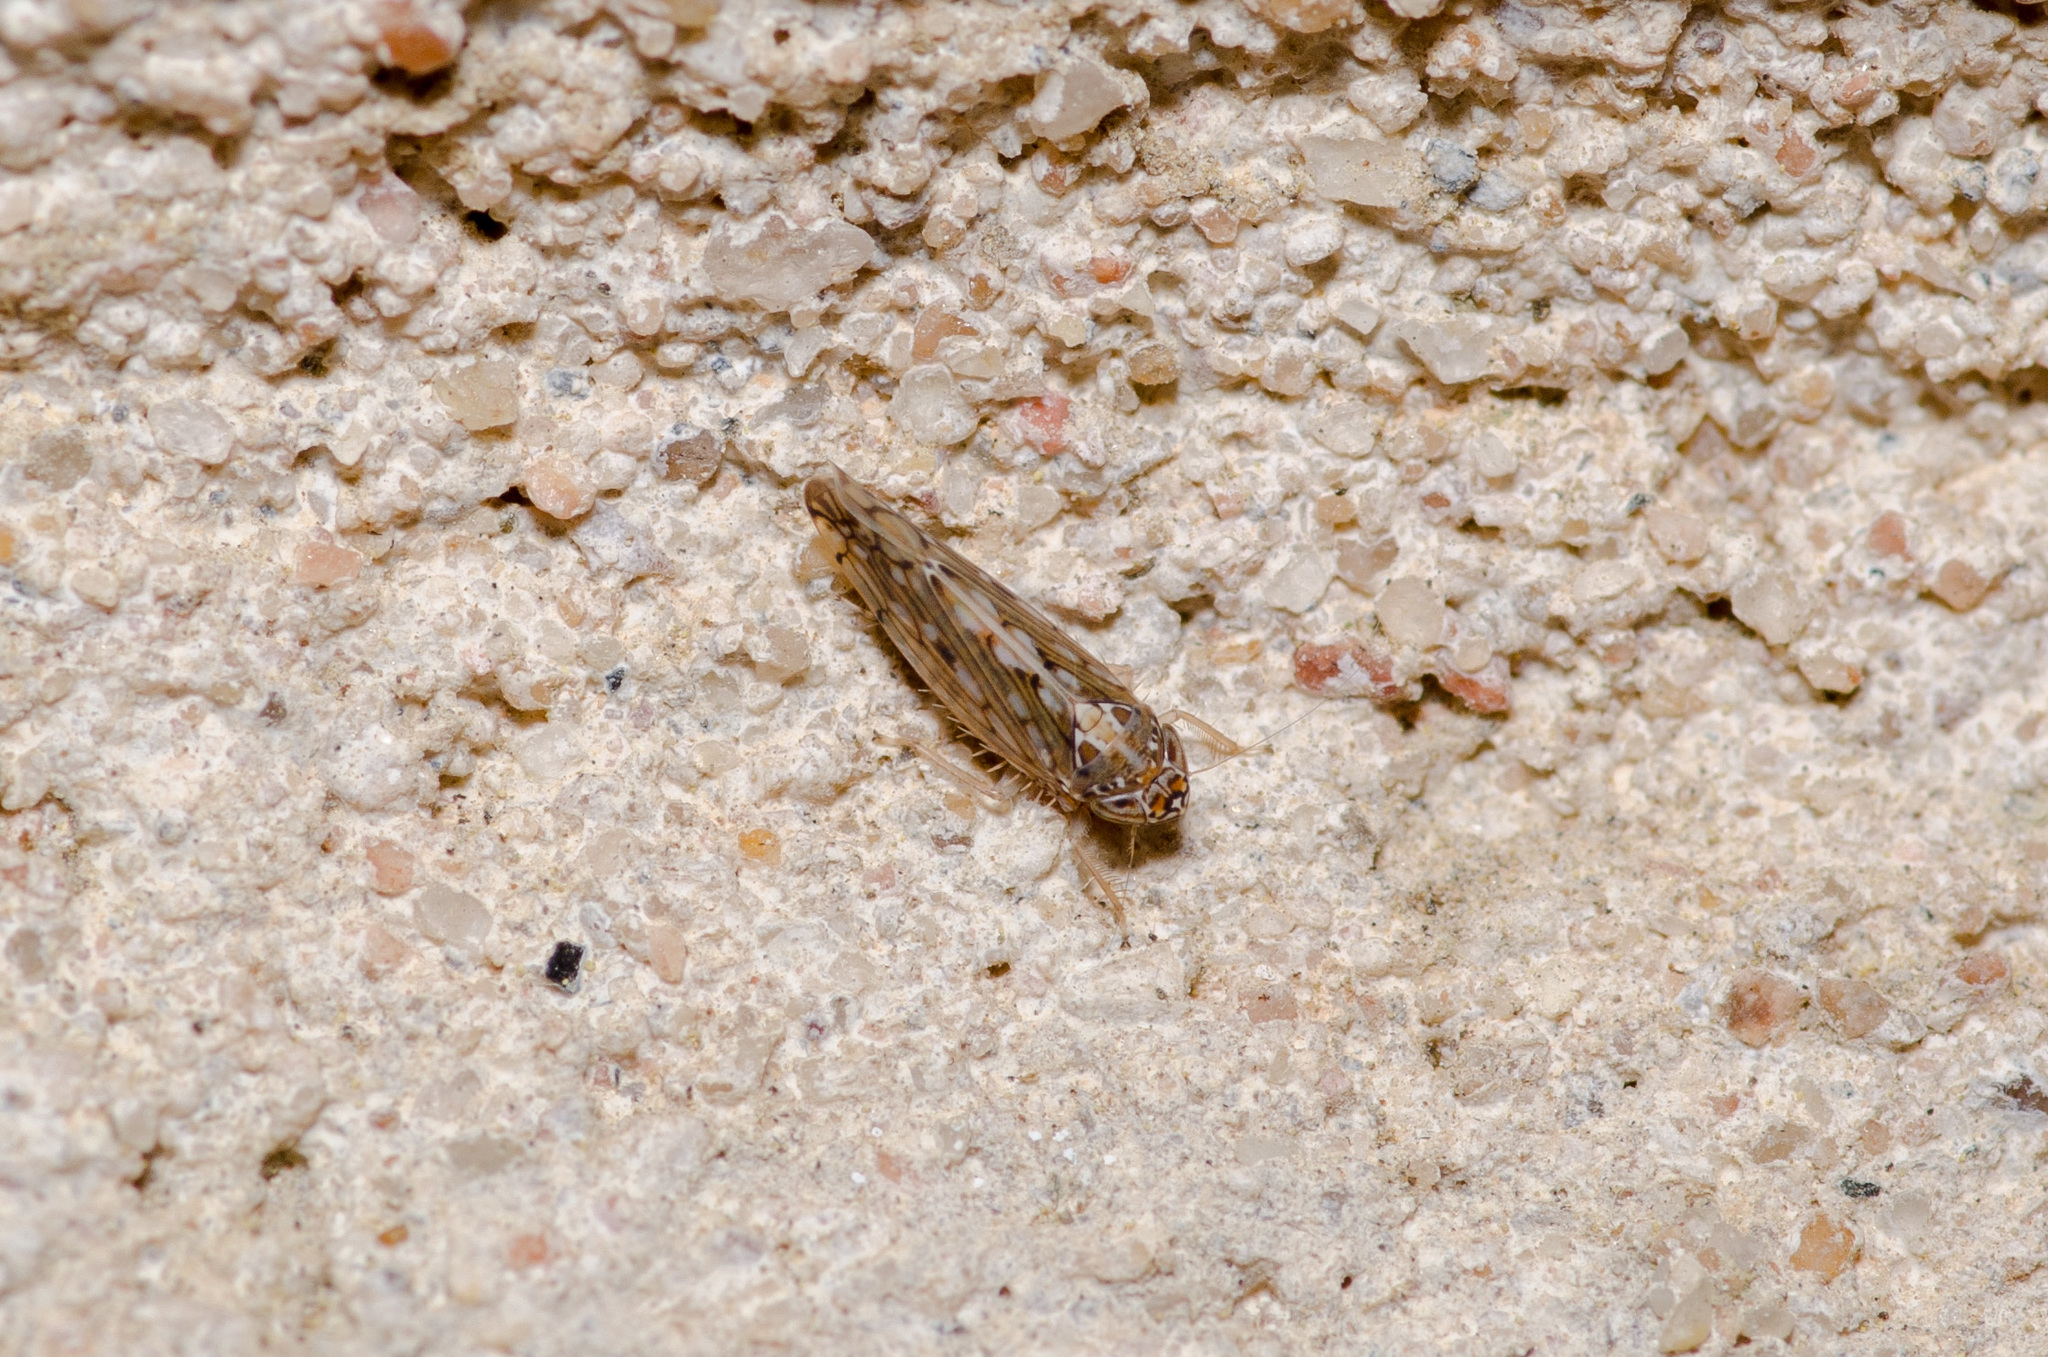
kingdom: Animalia
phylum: Arthropoda
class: Insecta
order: Hemiptera
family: Cicadellidae
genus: Osbornellus
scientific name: Osbornellus clarus
